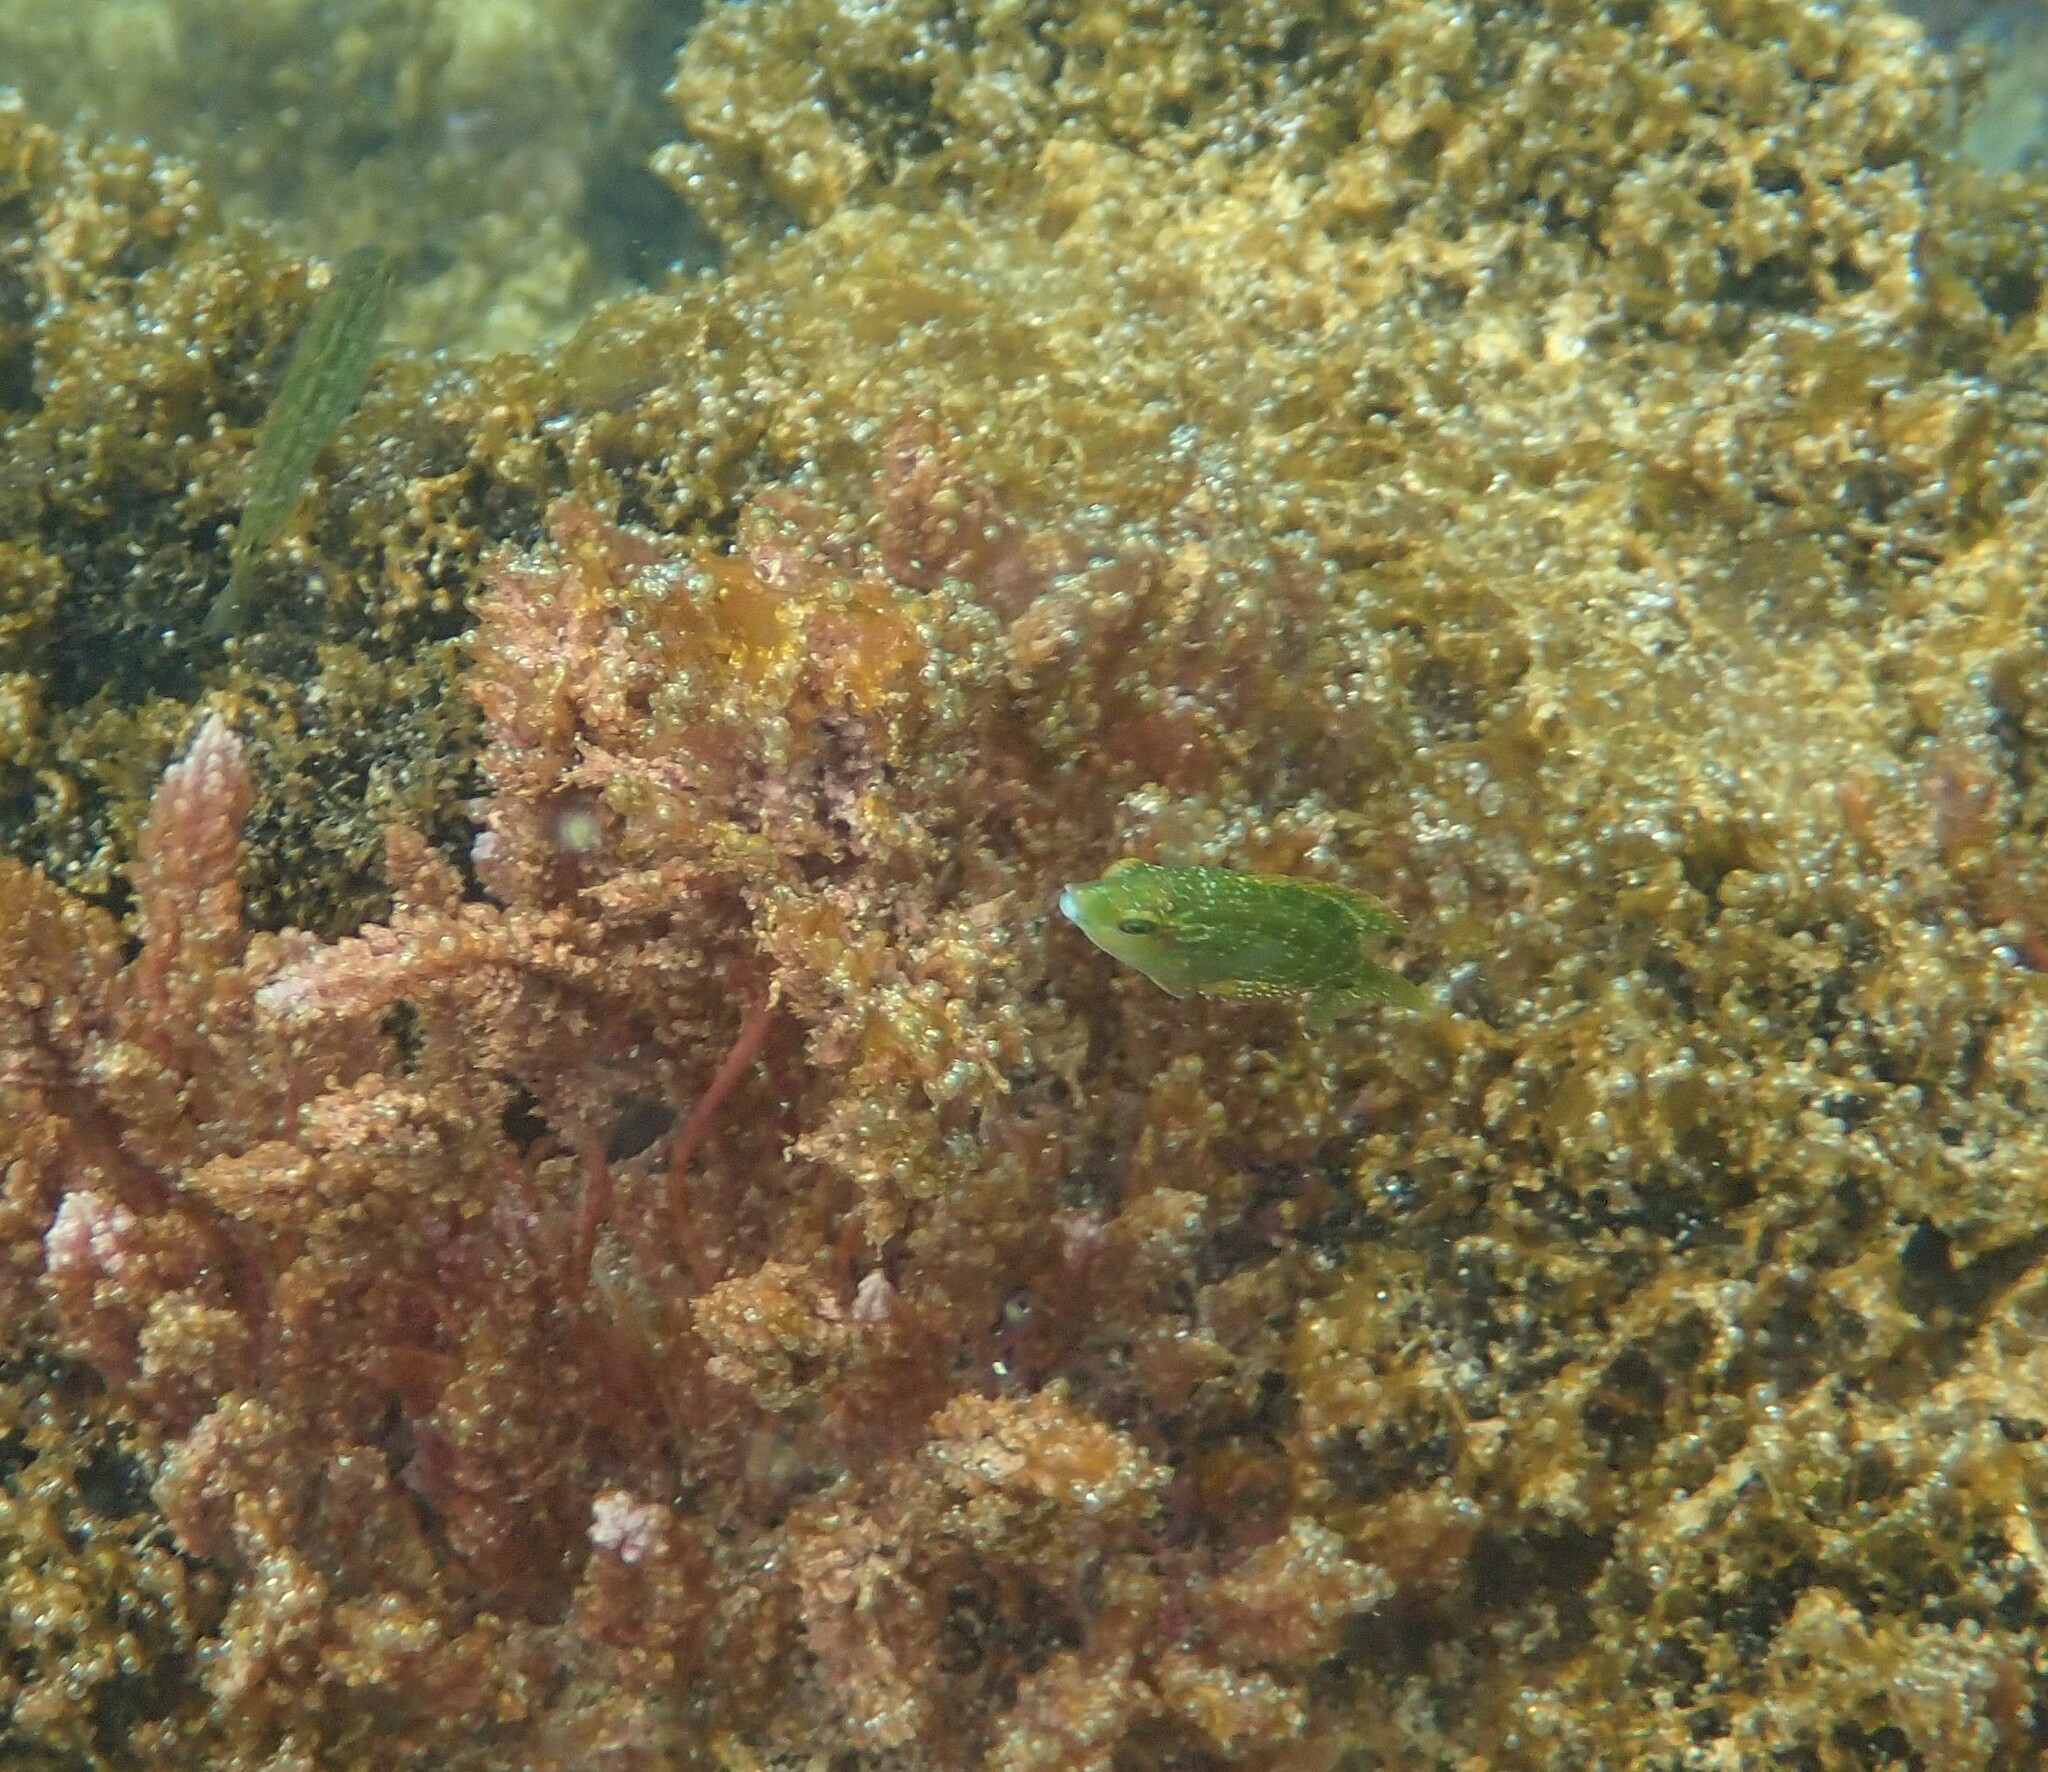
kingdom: Animalia
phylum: Chordata
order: Perciformes
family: Labridae
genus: Symphodus
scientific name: Symphodus caeruleus
